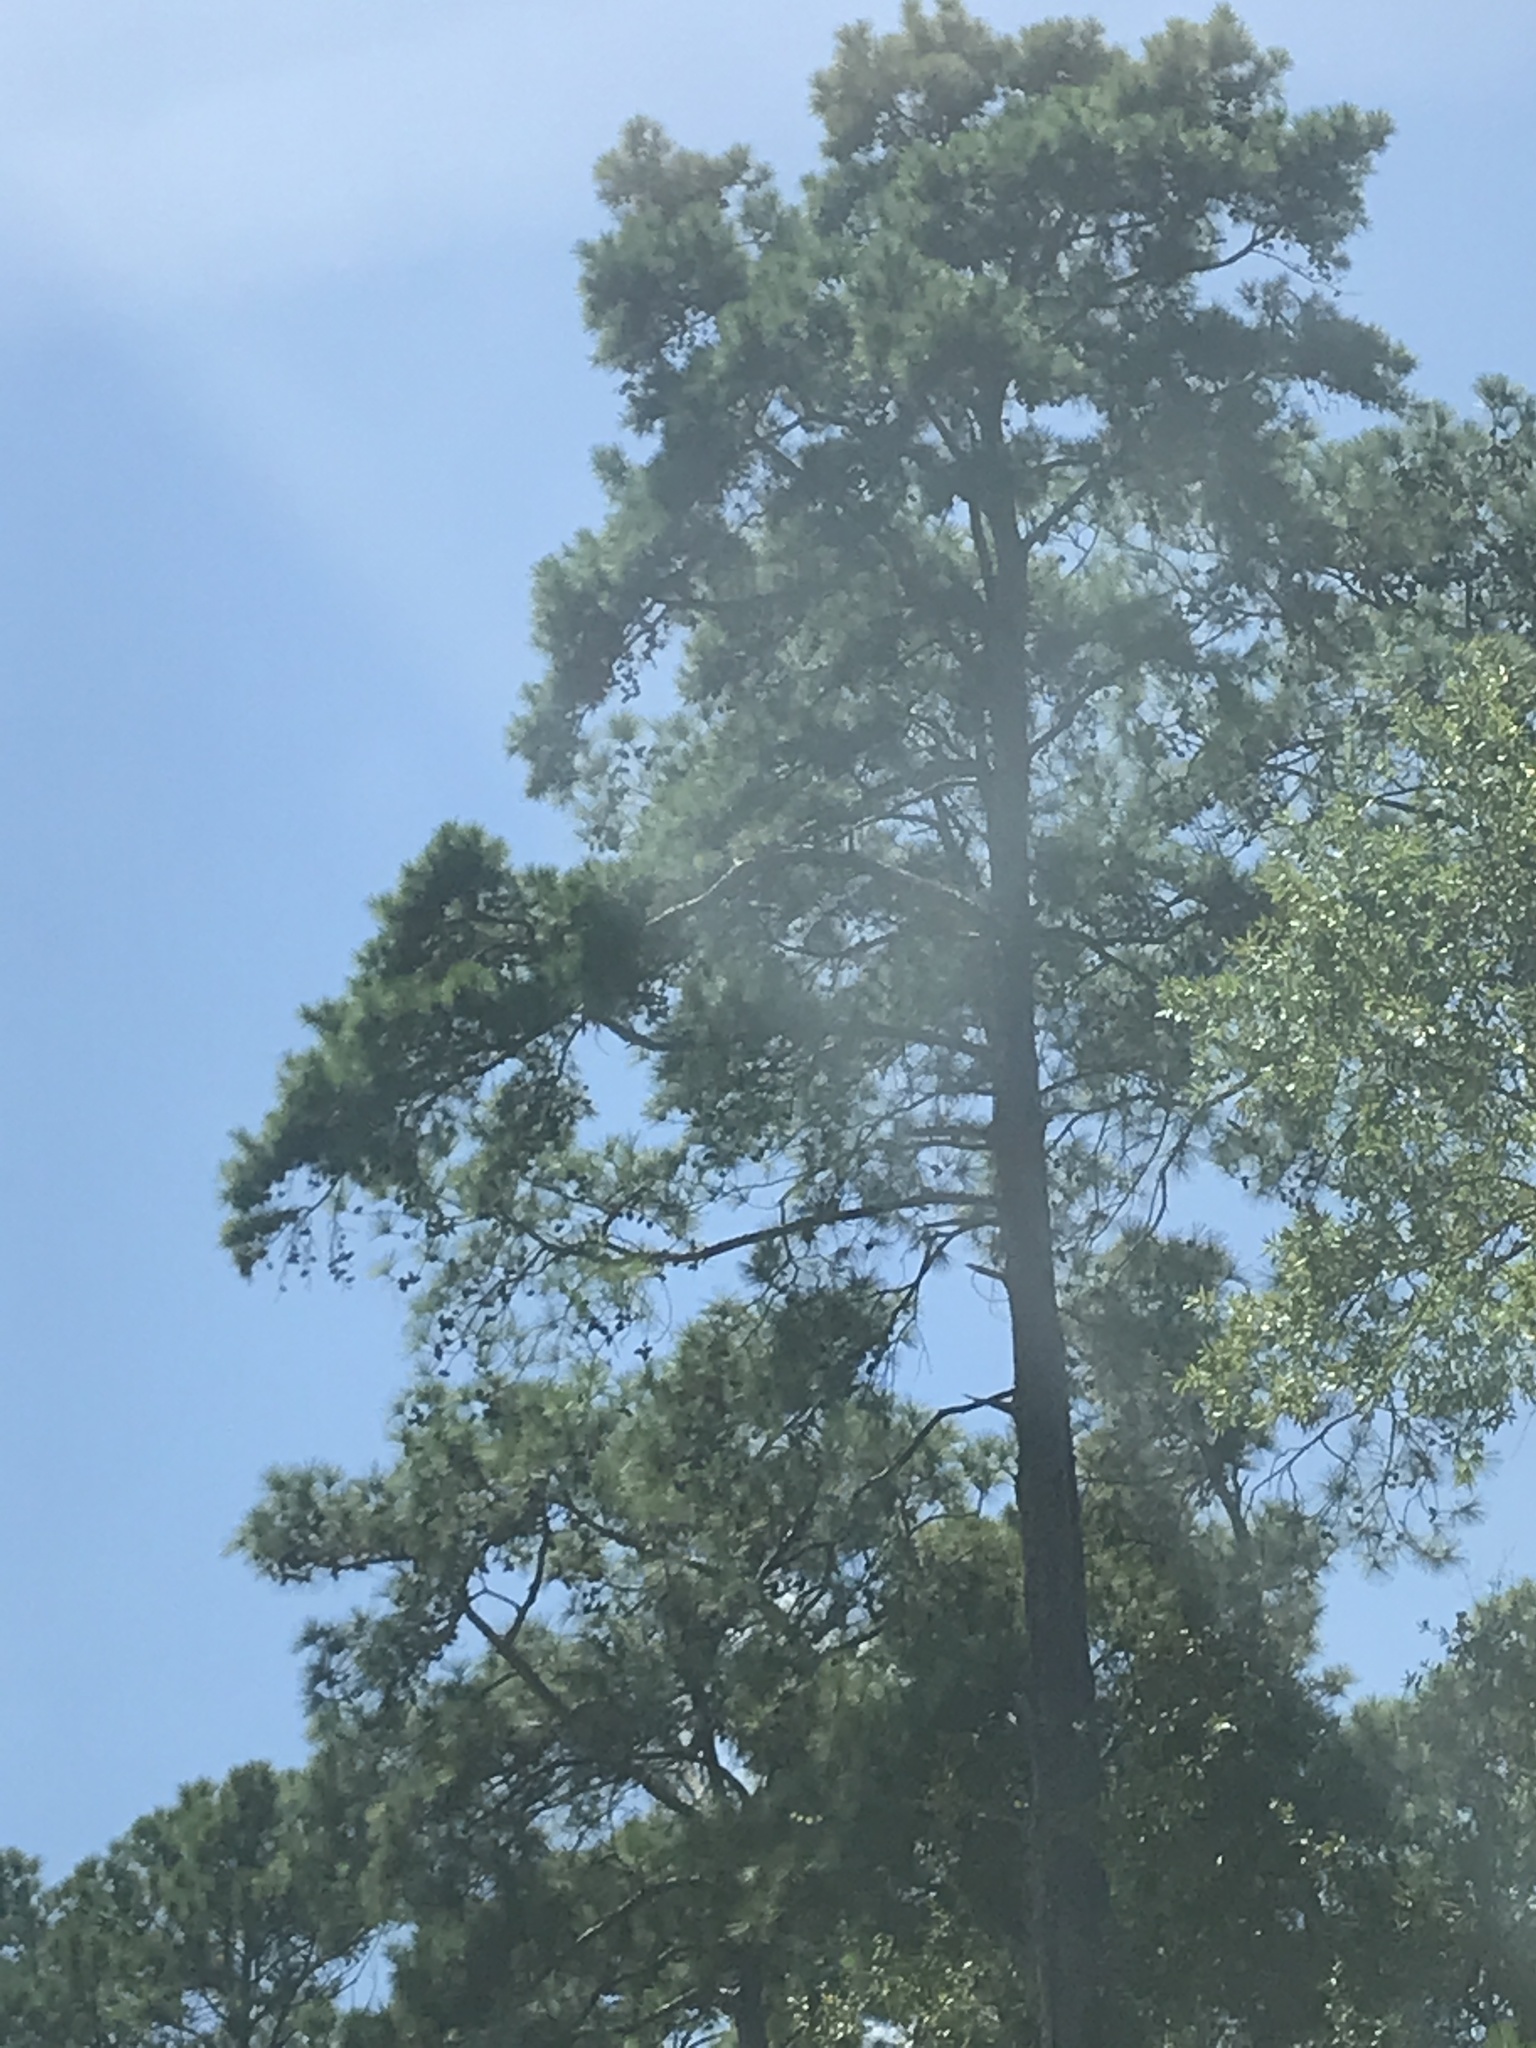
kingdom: Plantae
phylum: Tracheophyta
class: Pinopsida
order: Pinales
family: Pinaceae
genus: Pinus
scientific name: Pinus echinata
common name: Shortleaf pine
